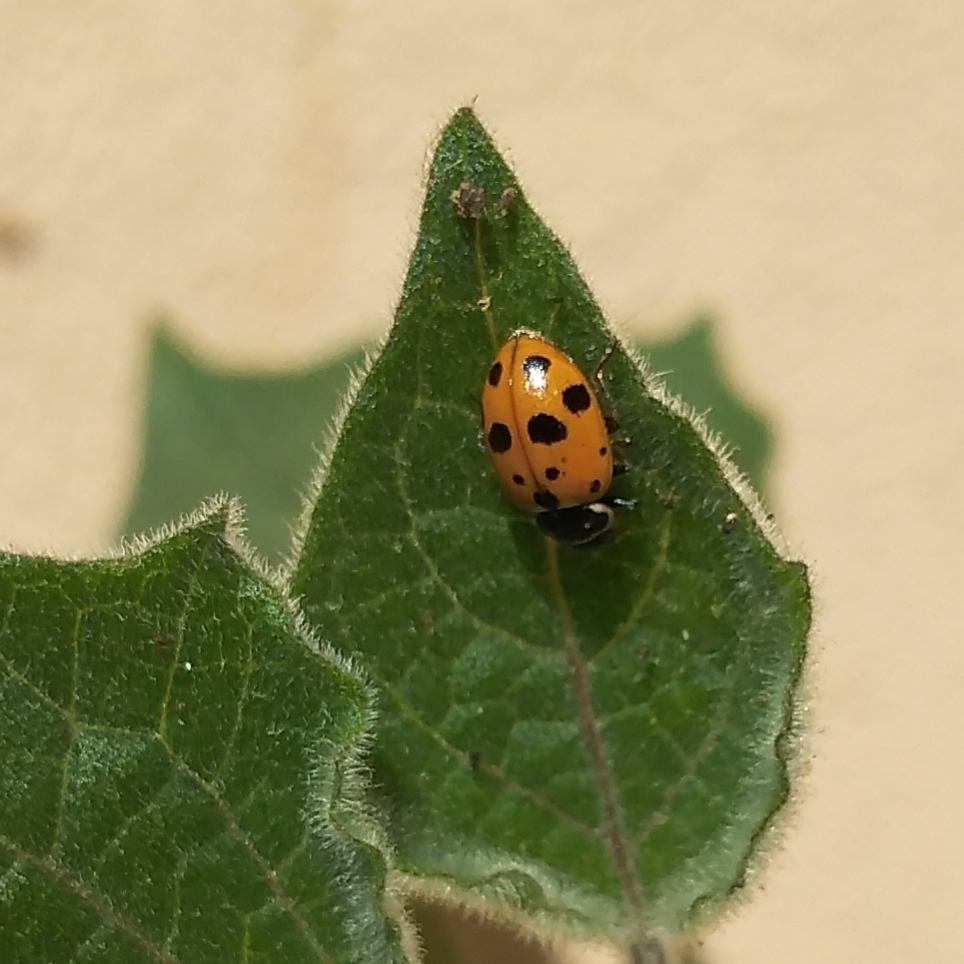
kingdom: Animalia
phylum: Arthropoda
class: Insecta
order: Coleoptera
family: Coccinellidae
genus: Hippodamia
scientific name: Hippodamia variegata
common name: Ladybird beetle
